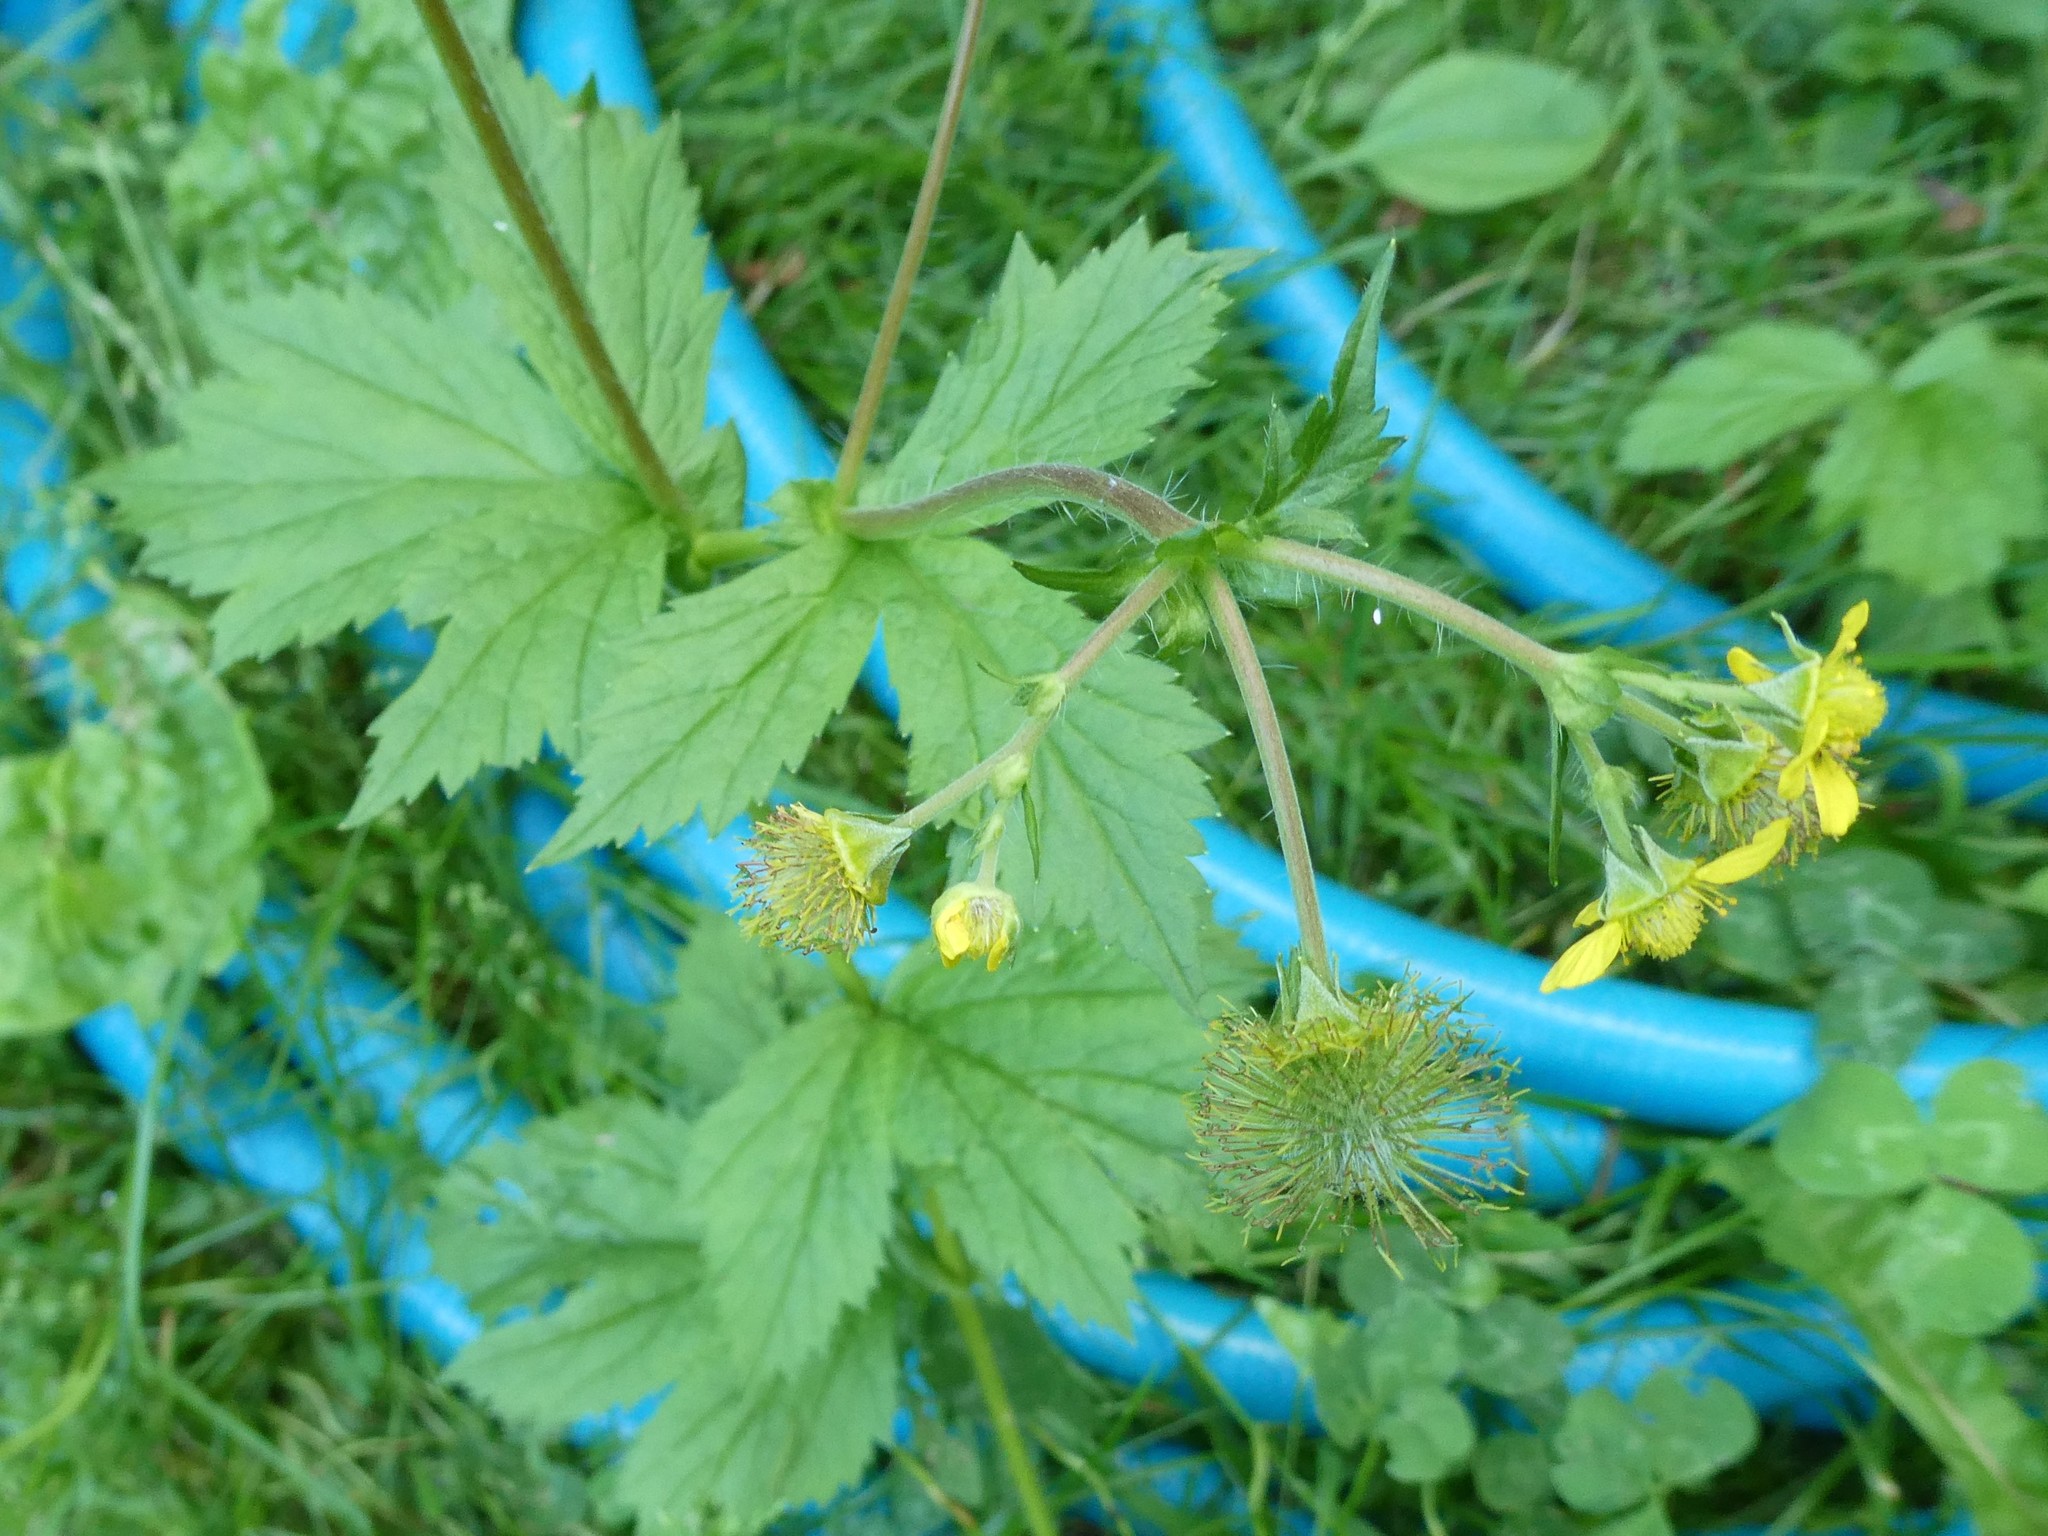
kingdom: Plantae
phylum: Tracheophyta
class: Magnoliopsida
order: Rosales
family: Rosaceae
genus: Geum
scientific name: Geum macrophyllum
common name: Large-leaved avens
